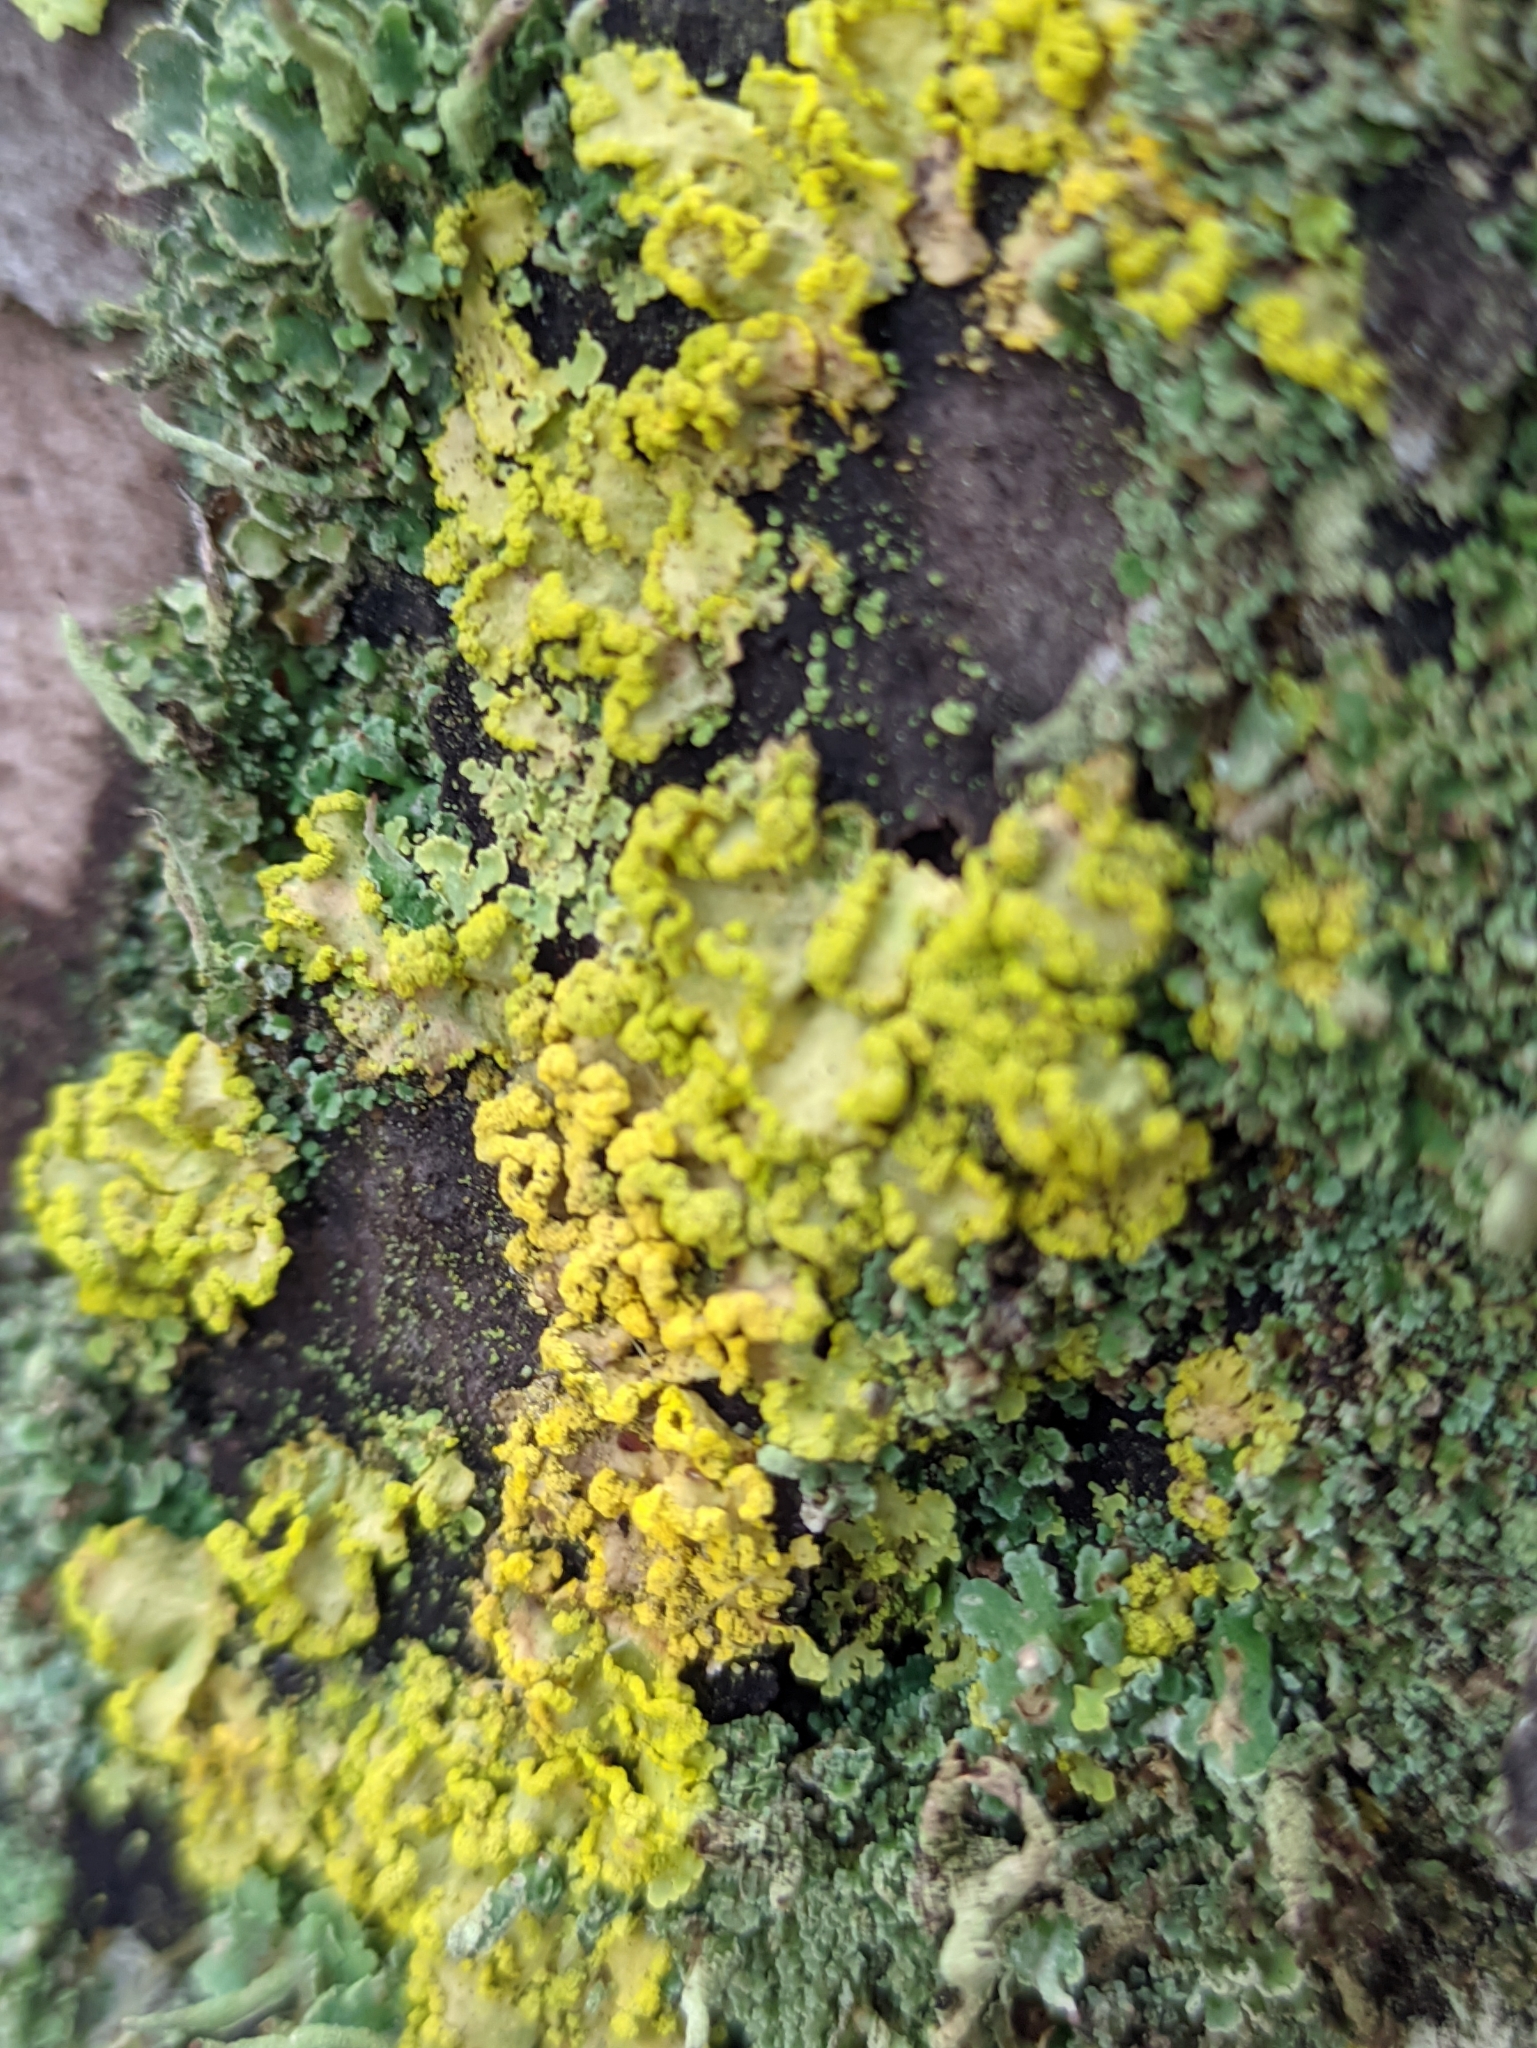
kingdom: Fungi
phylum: Ascomycota
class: Lecanoromycetes
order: Lecanorales
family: Parmeliaceae
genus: Vulpicida
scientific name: Vulpicida pinastri
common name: Powdered sunshine lichen
